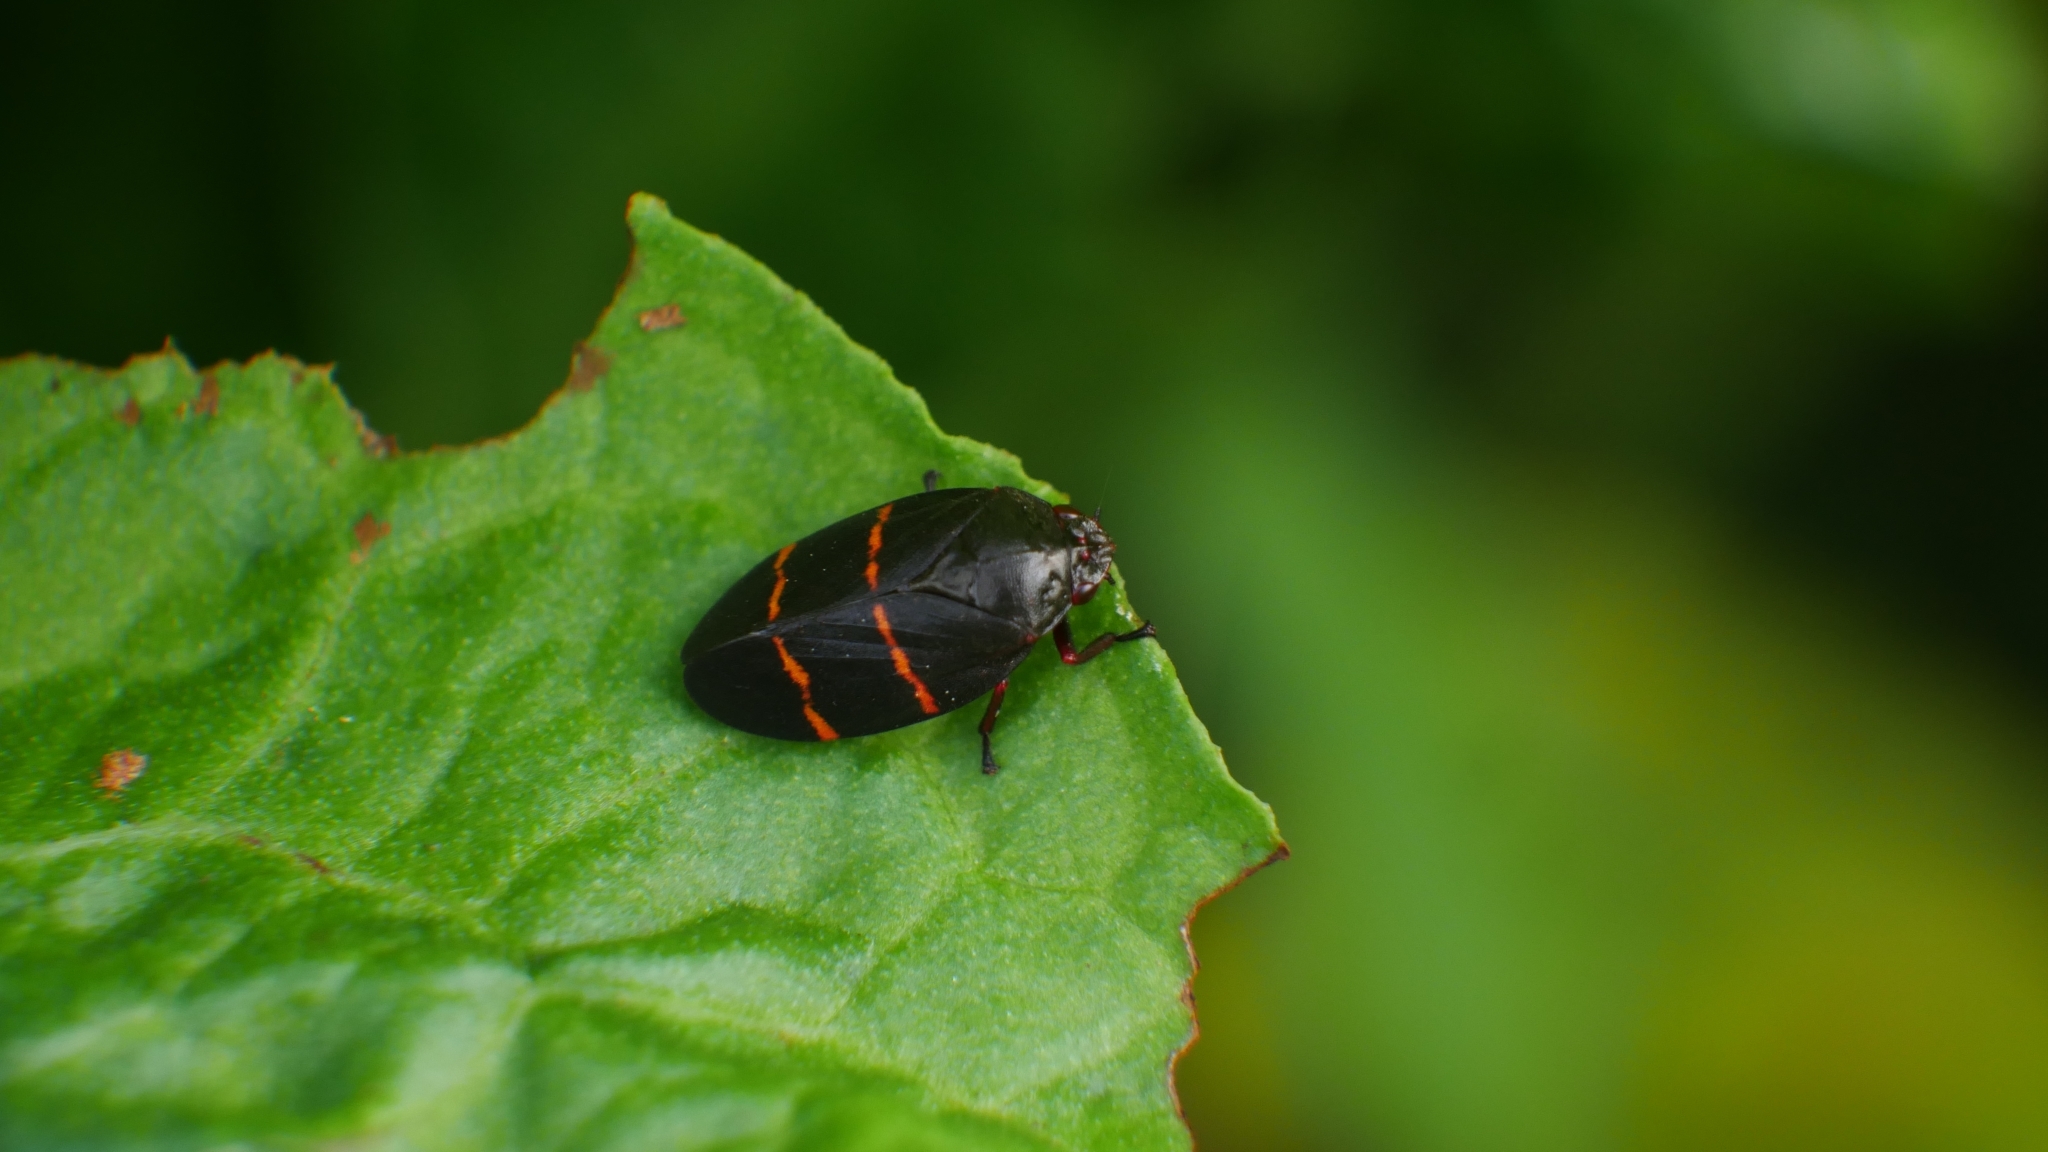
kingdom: Animalia
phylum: Arthropoda
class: Insecta
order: Hemiptera
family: Cercopidae
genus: Prosapia
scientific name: Prosapia bicincta
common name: Twolined spittlebug
